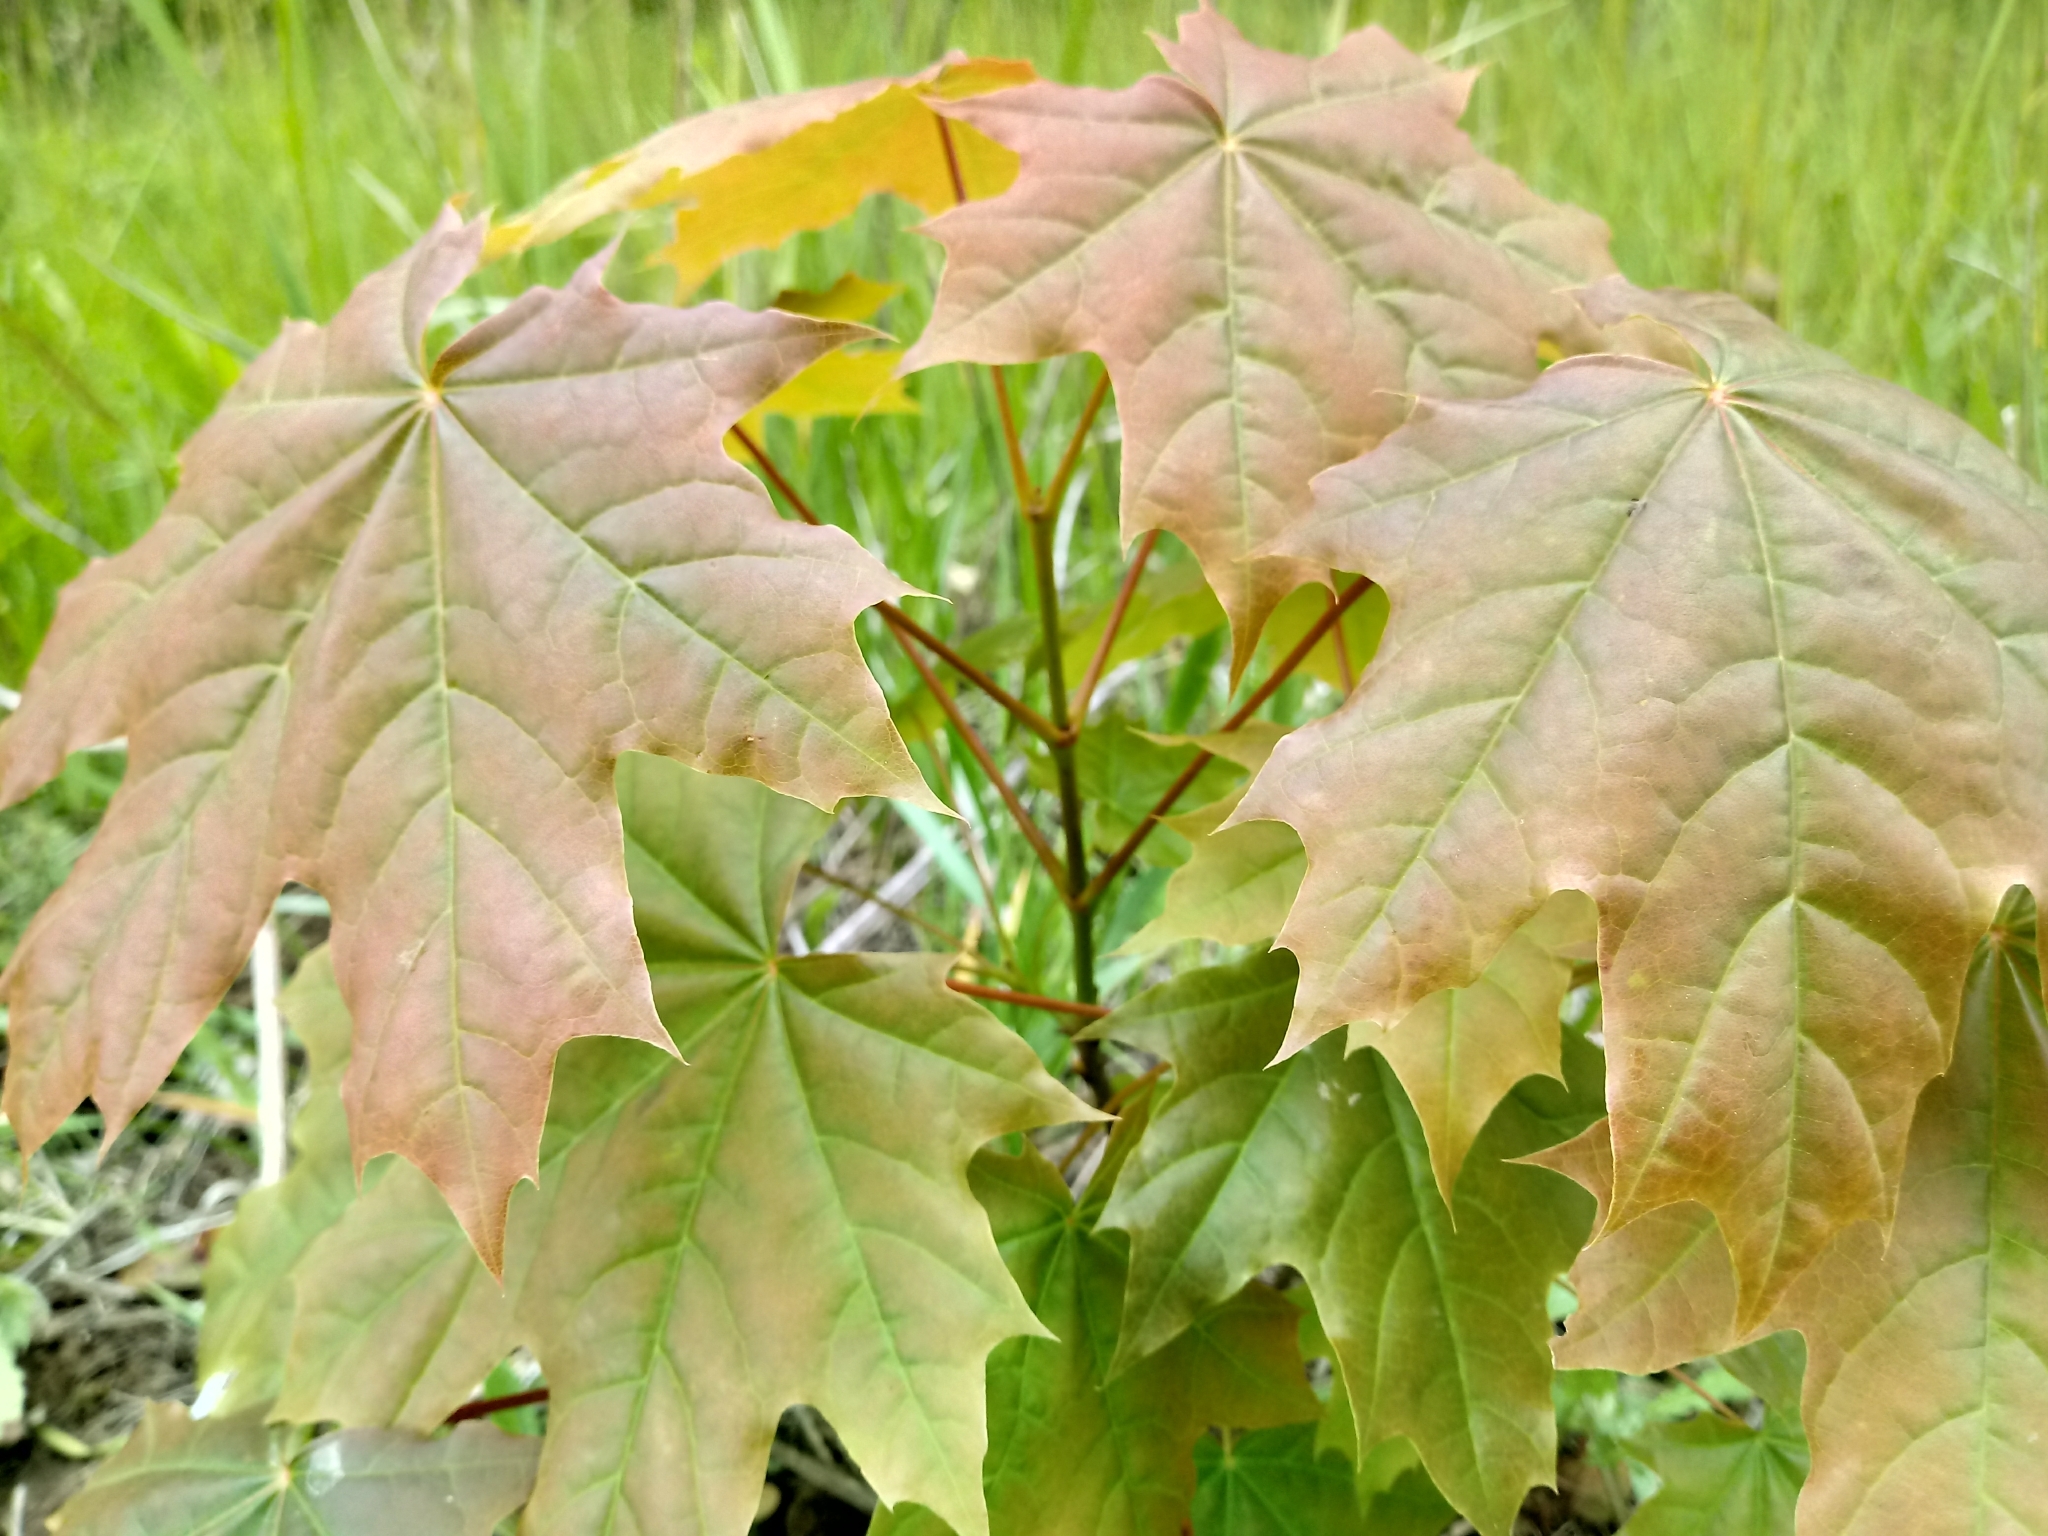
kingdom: Plantae
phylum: Tracheophyta
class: Magnoliopsida
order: Sapindales
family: Sapindaceae
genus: Acer
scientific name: Acer platanoides
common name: Norway maple
